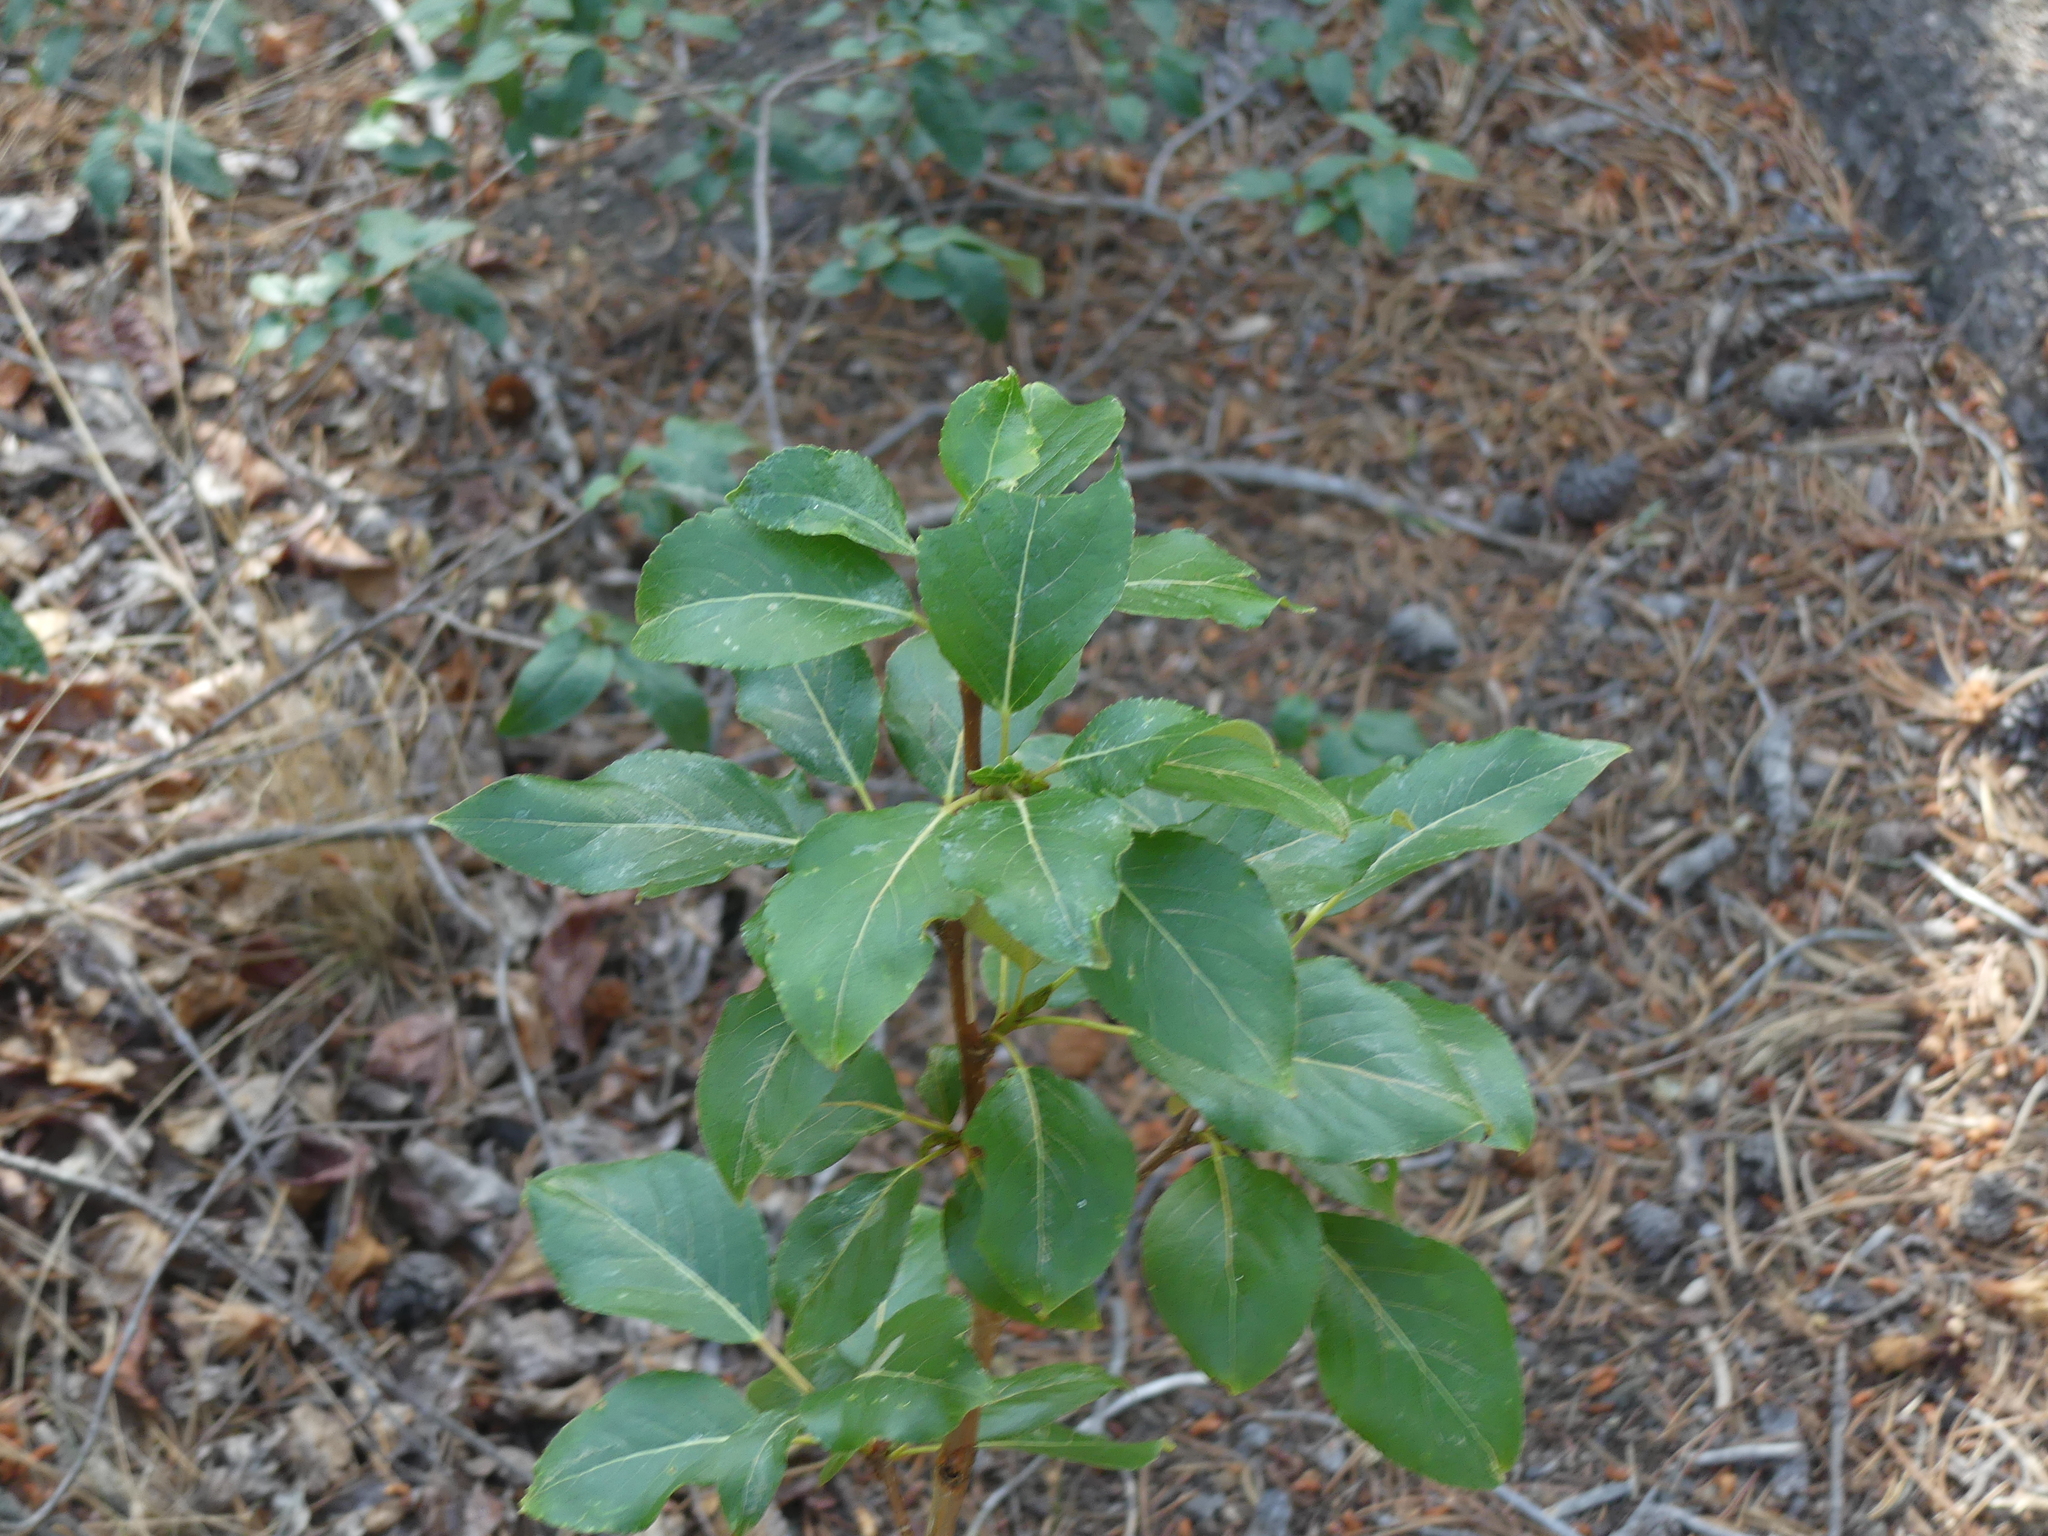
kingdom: Plantae
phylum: Tracheophyta
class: Magnoliopsida
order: Malpighiales
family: Salicaceae
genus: Populus
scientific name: Populus balsamifera
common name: Balsam poplar
